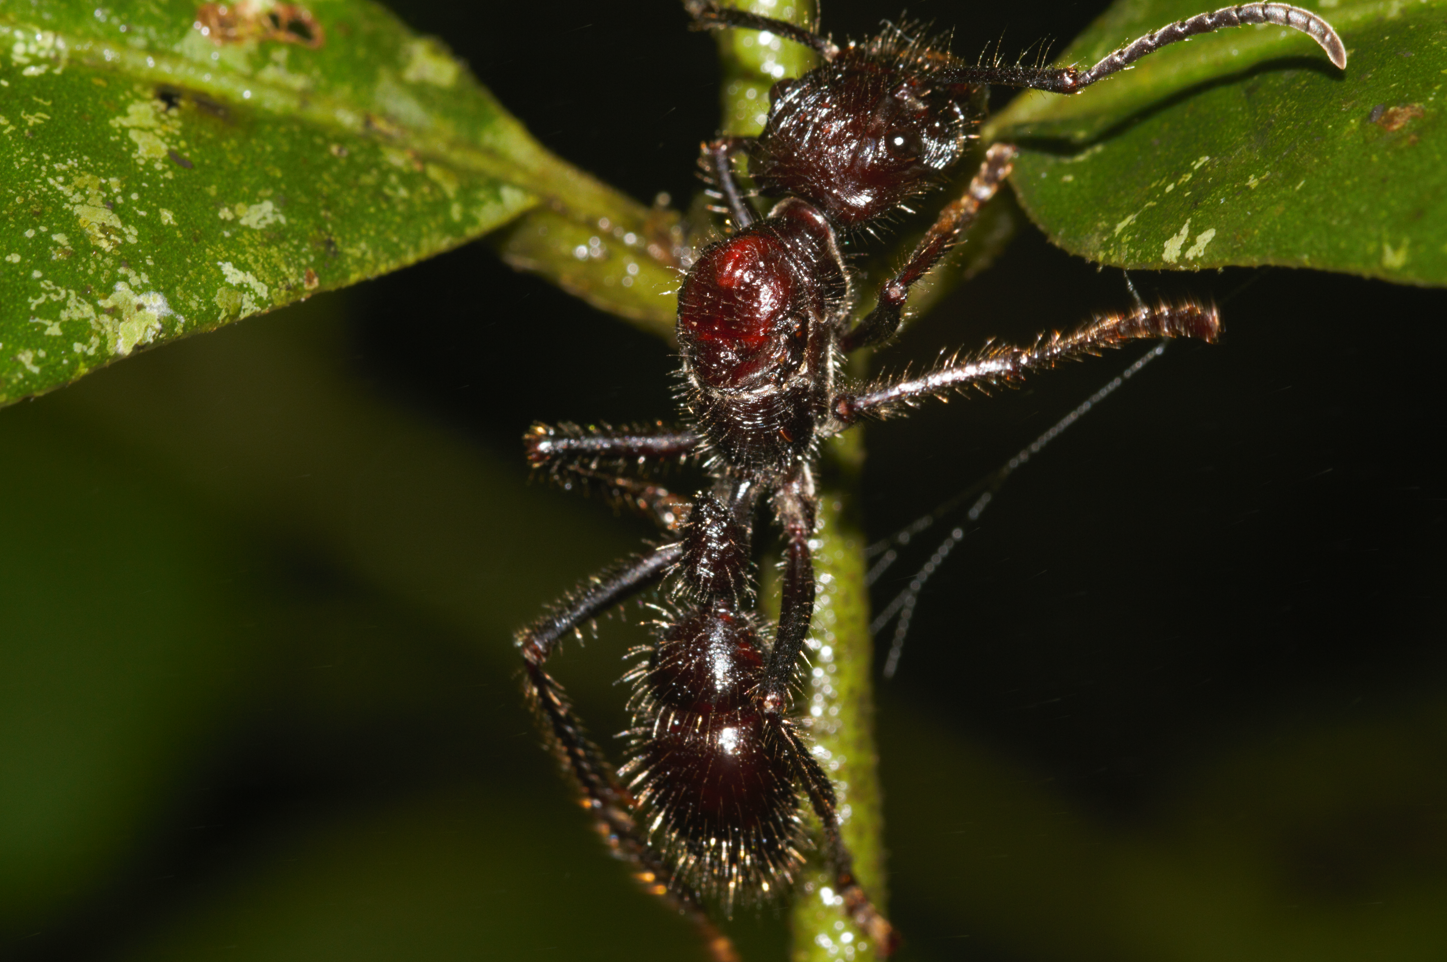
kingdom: Animalia
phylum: Arthropoda
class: Insecta
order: Hymenoptera
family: Formicidae
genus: Paraponera
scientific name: Paraponera clavata
